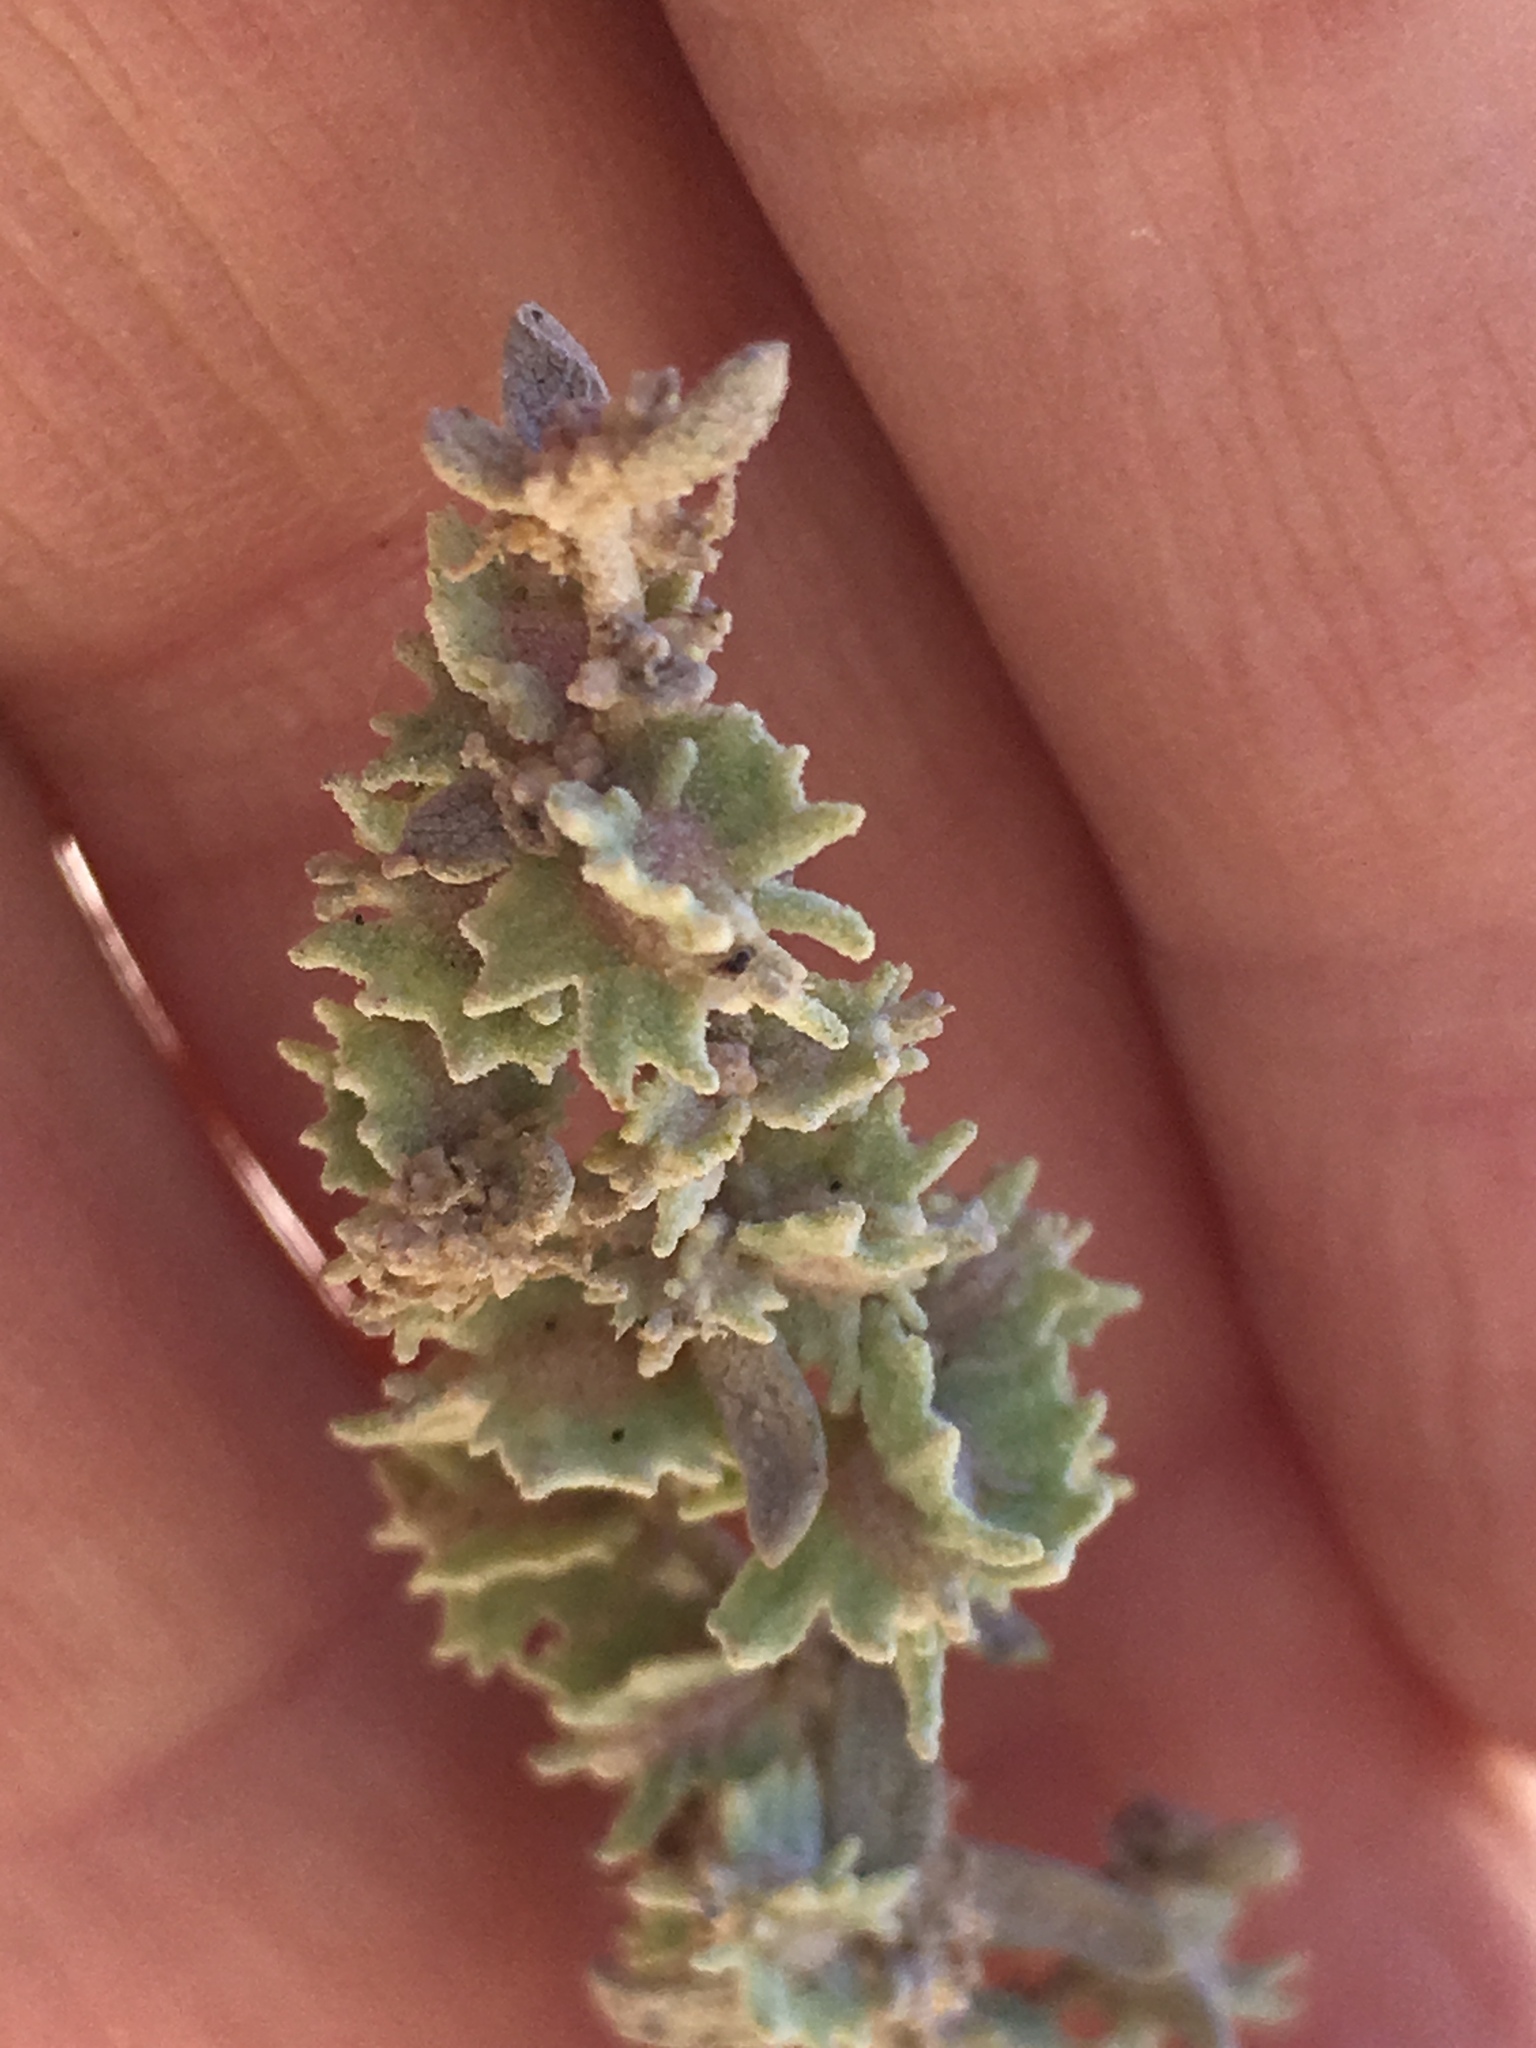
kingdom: Plantae
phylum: Tracheophyta
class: Magnoliopsida
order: Caryophyllales
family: Amaranthaceae
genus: Atriplex
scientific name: Atriplex canescens
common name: Four-wing saltbush
